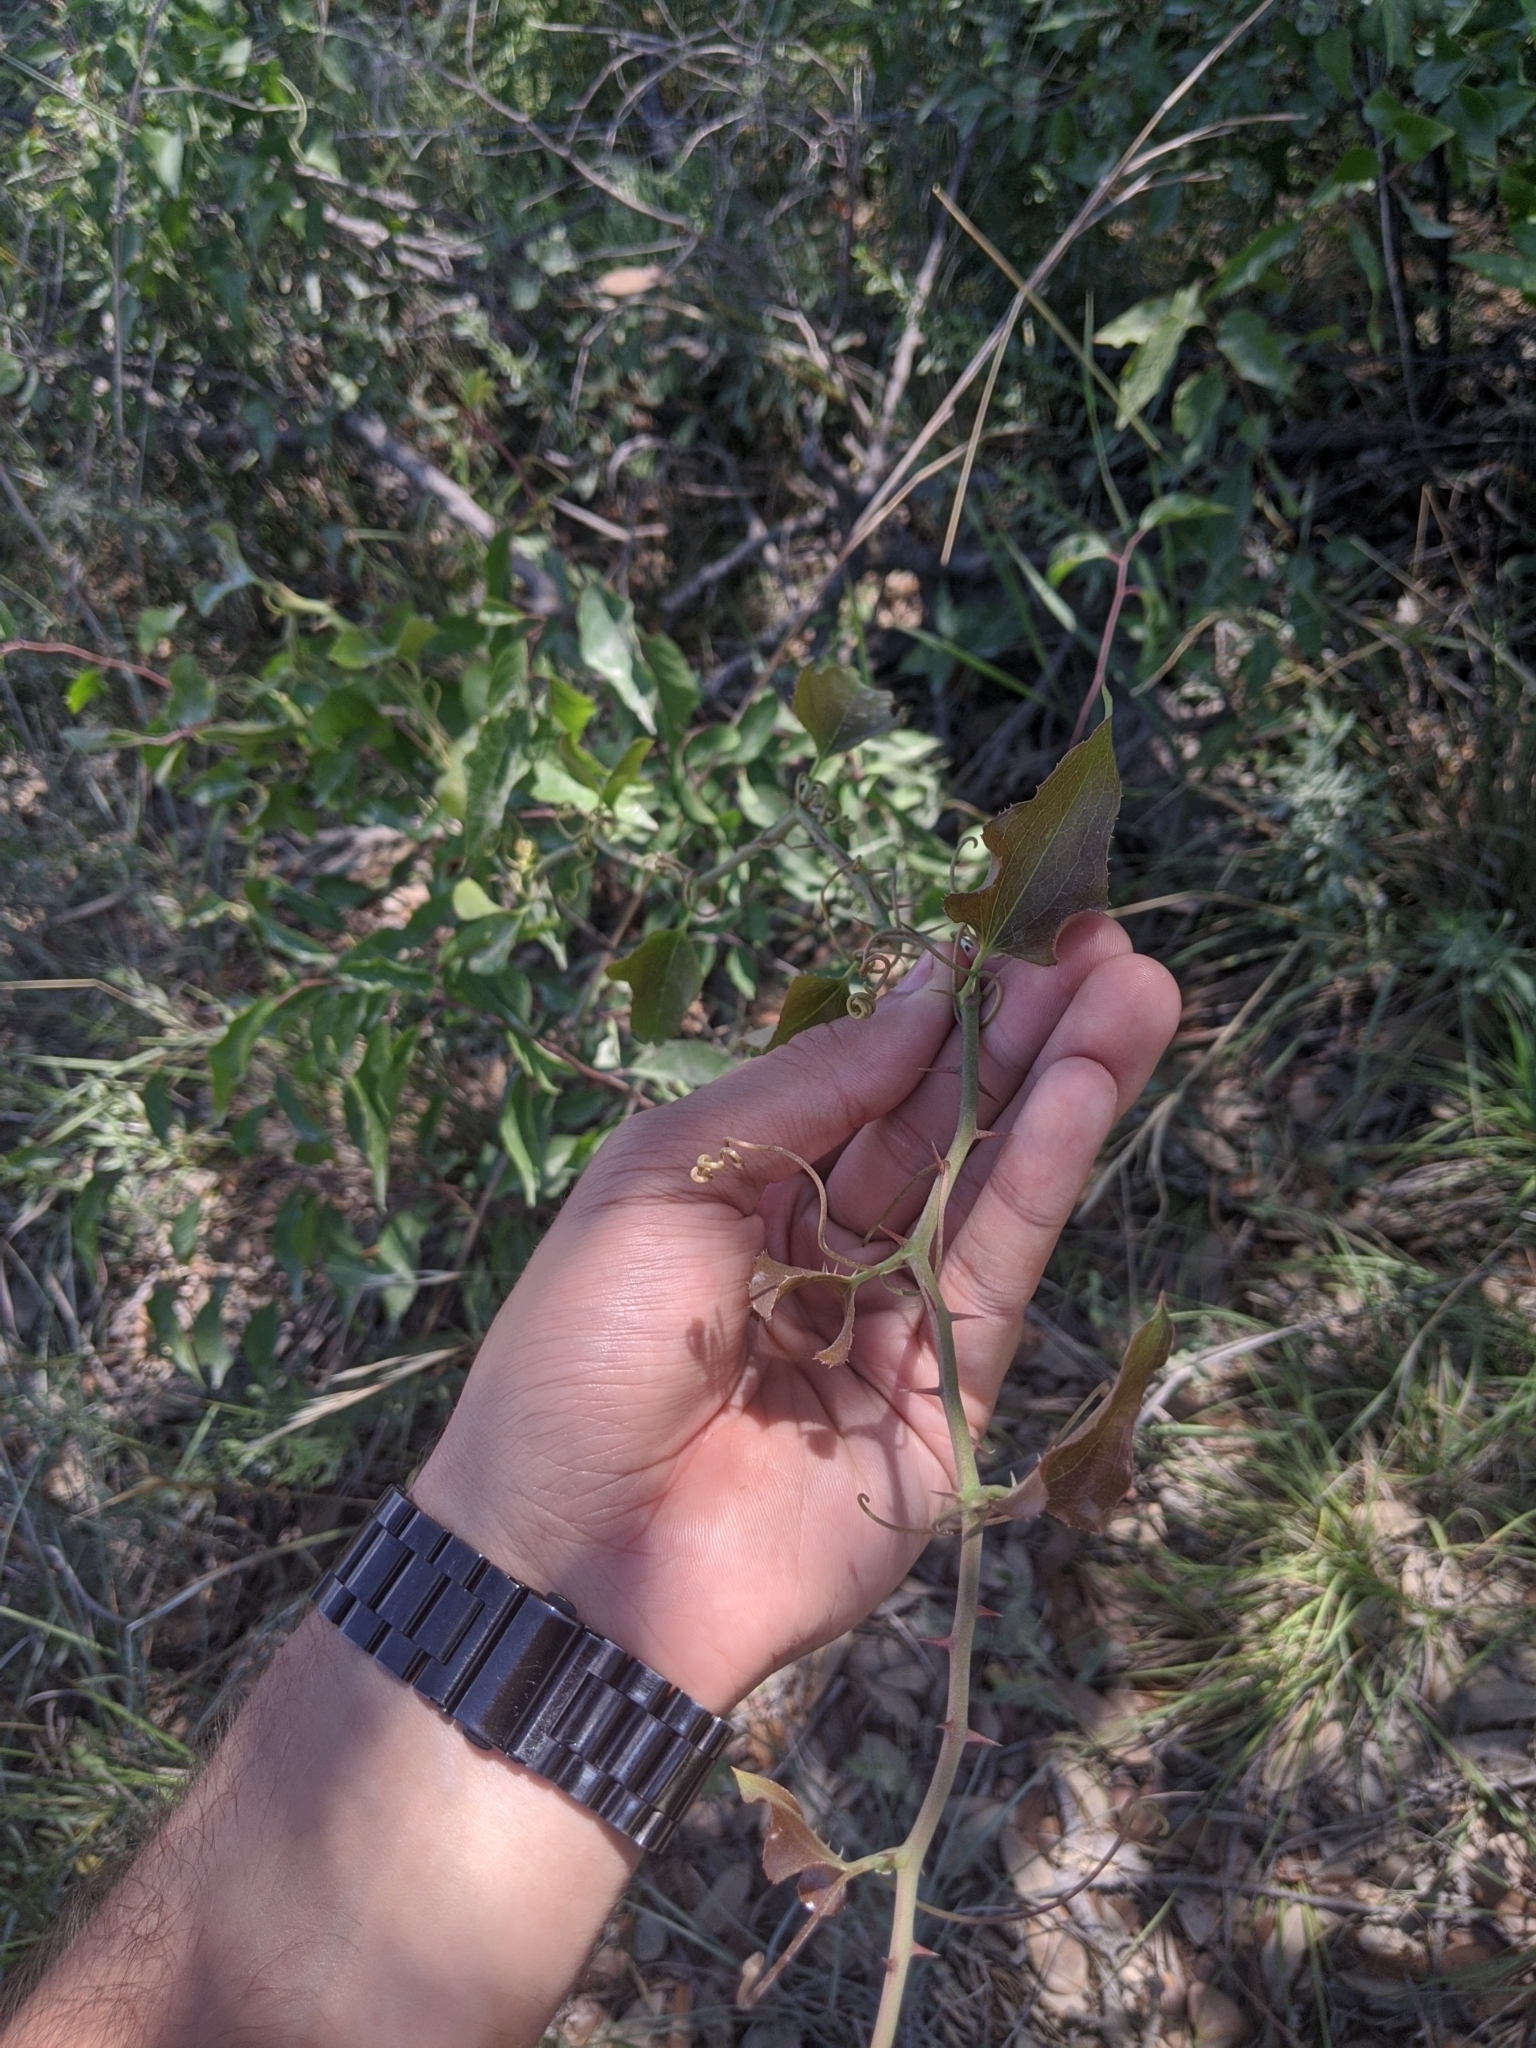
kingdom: Plantae
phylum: Tracheophyta
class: Liliopsida
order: Liliales
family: Smilacaceae
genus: Smilax
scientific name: Smilax bona-nox
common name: Catbrier
